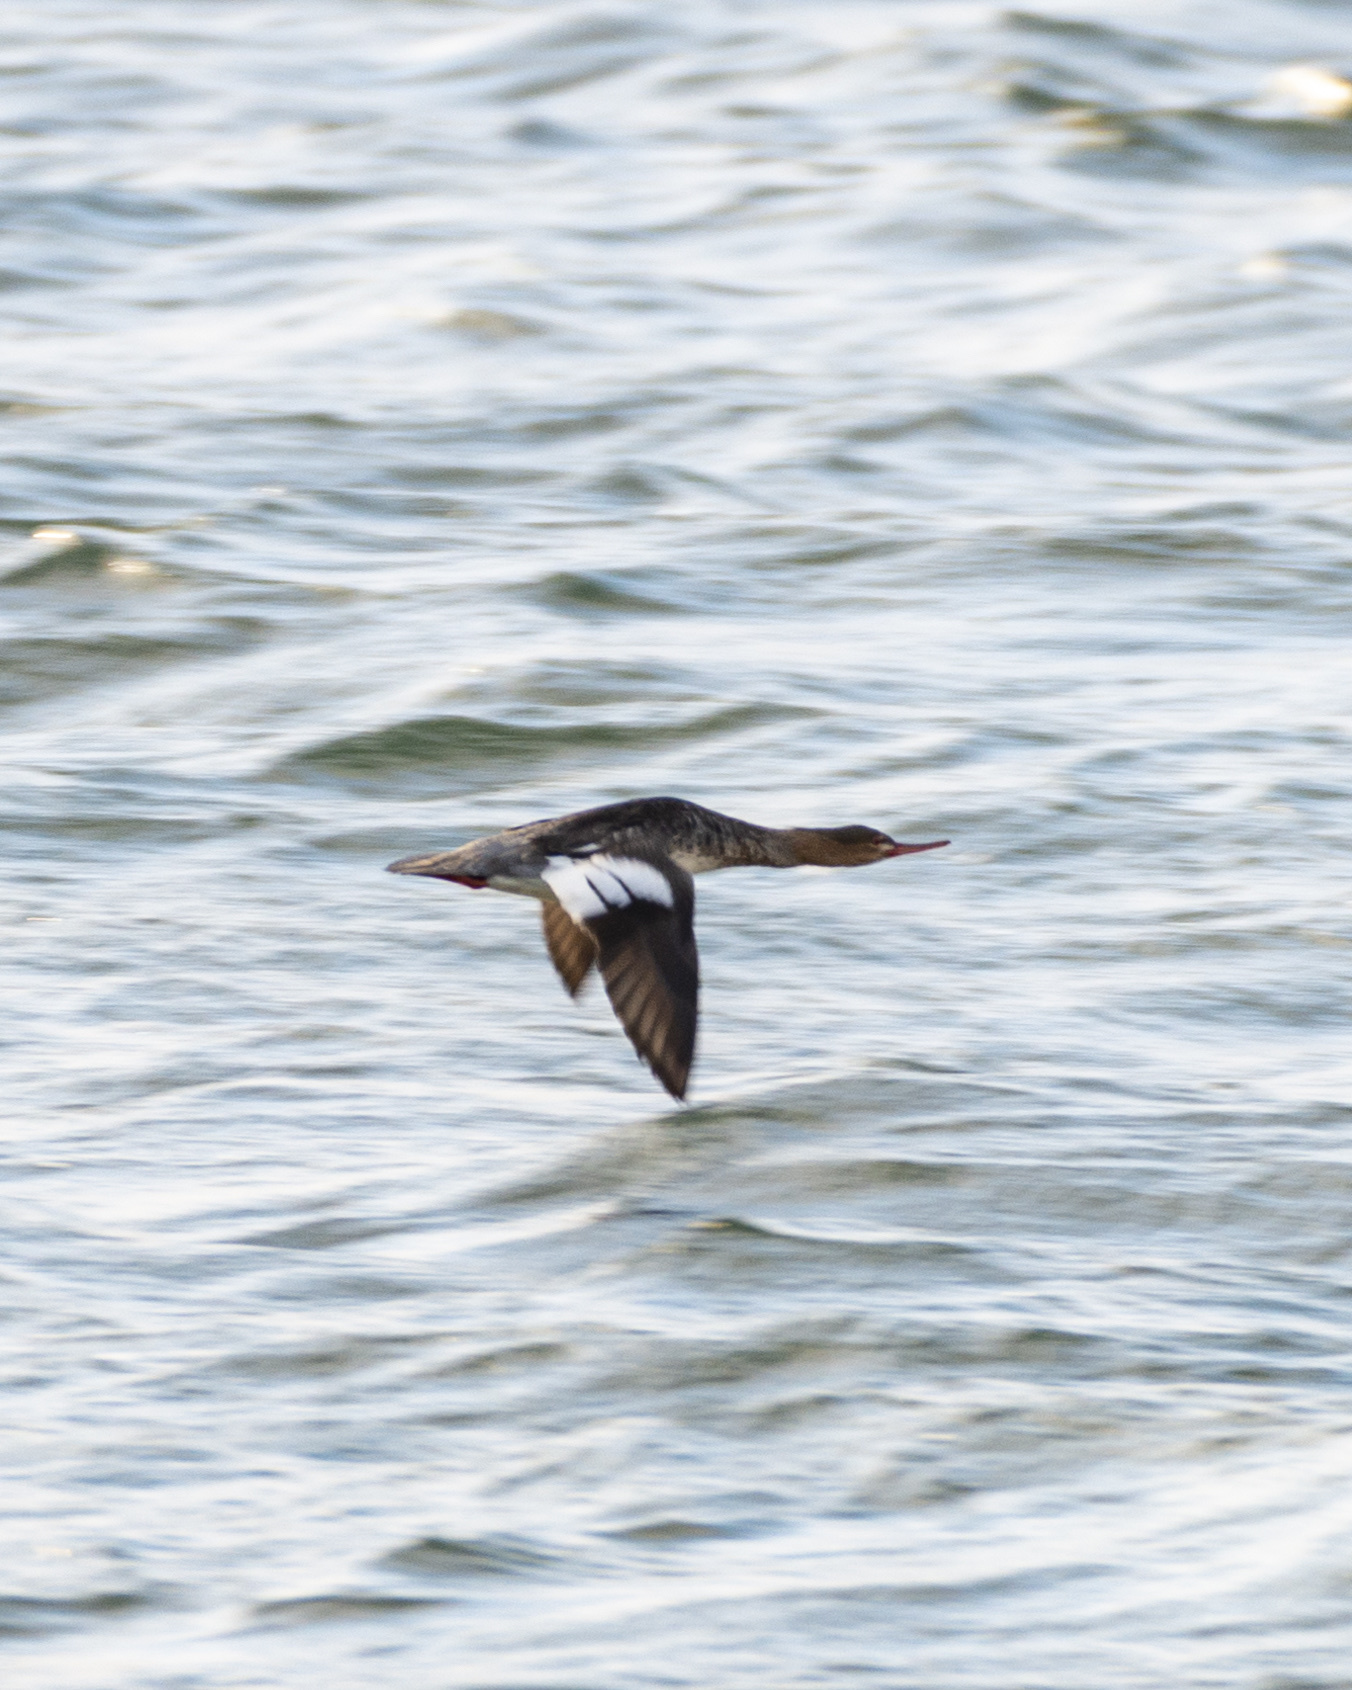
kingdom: Animalia
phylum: Chordata
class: Aves
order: Anseriformes
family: Anatidae
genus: Mergus
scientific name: Mergus serrator
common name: Red-breasted merganser
